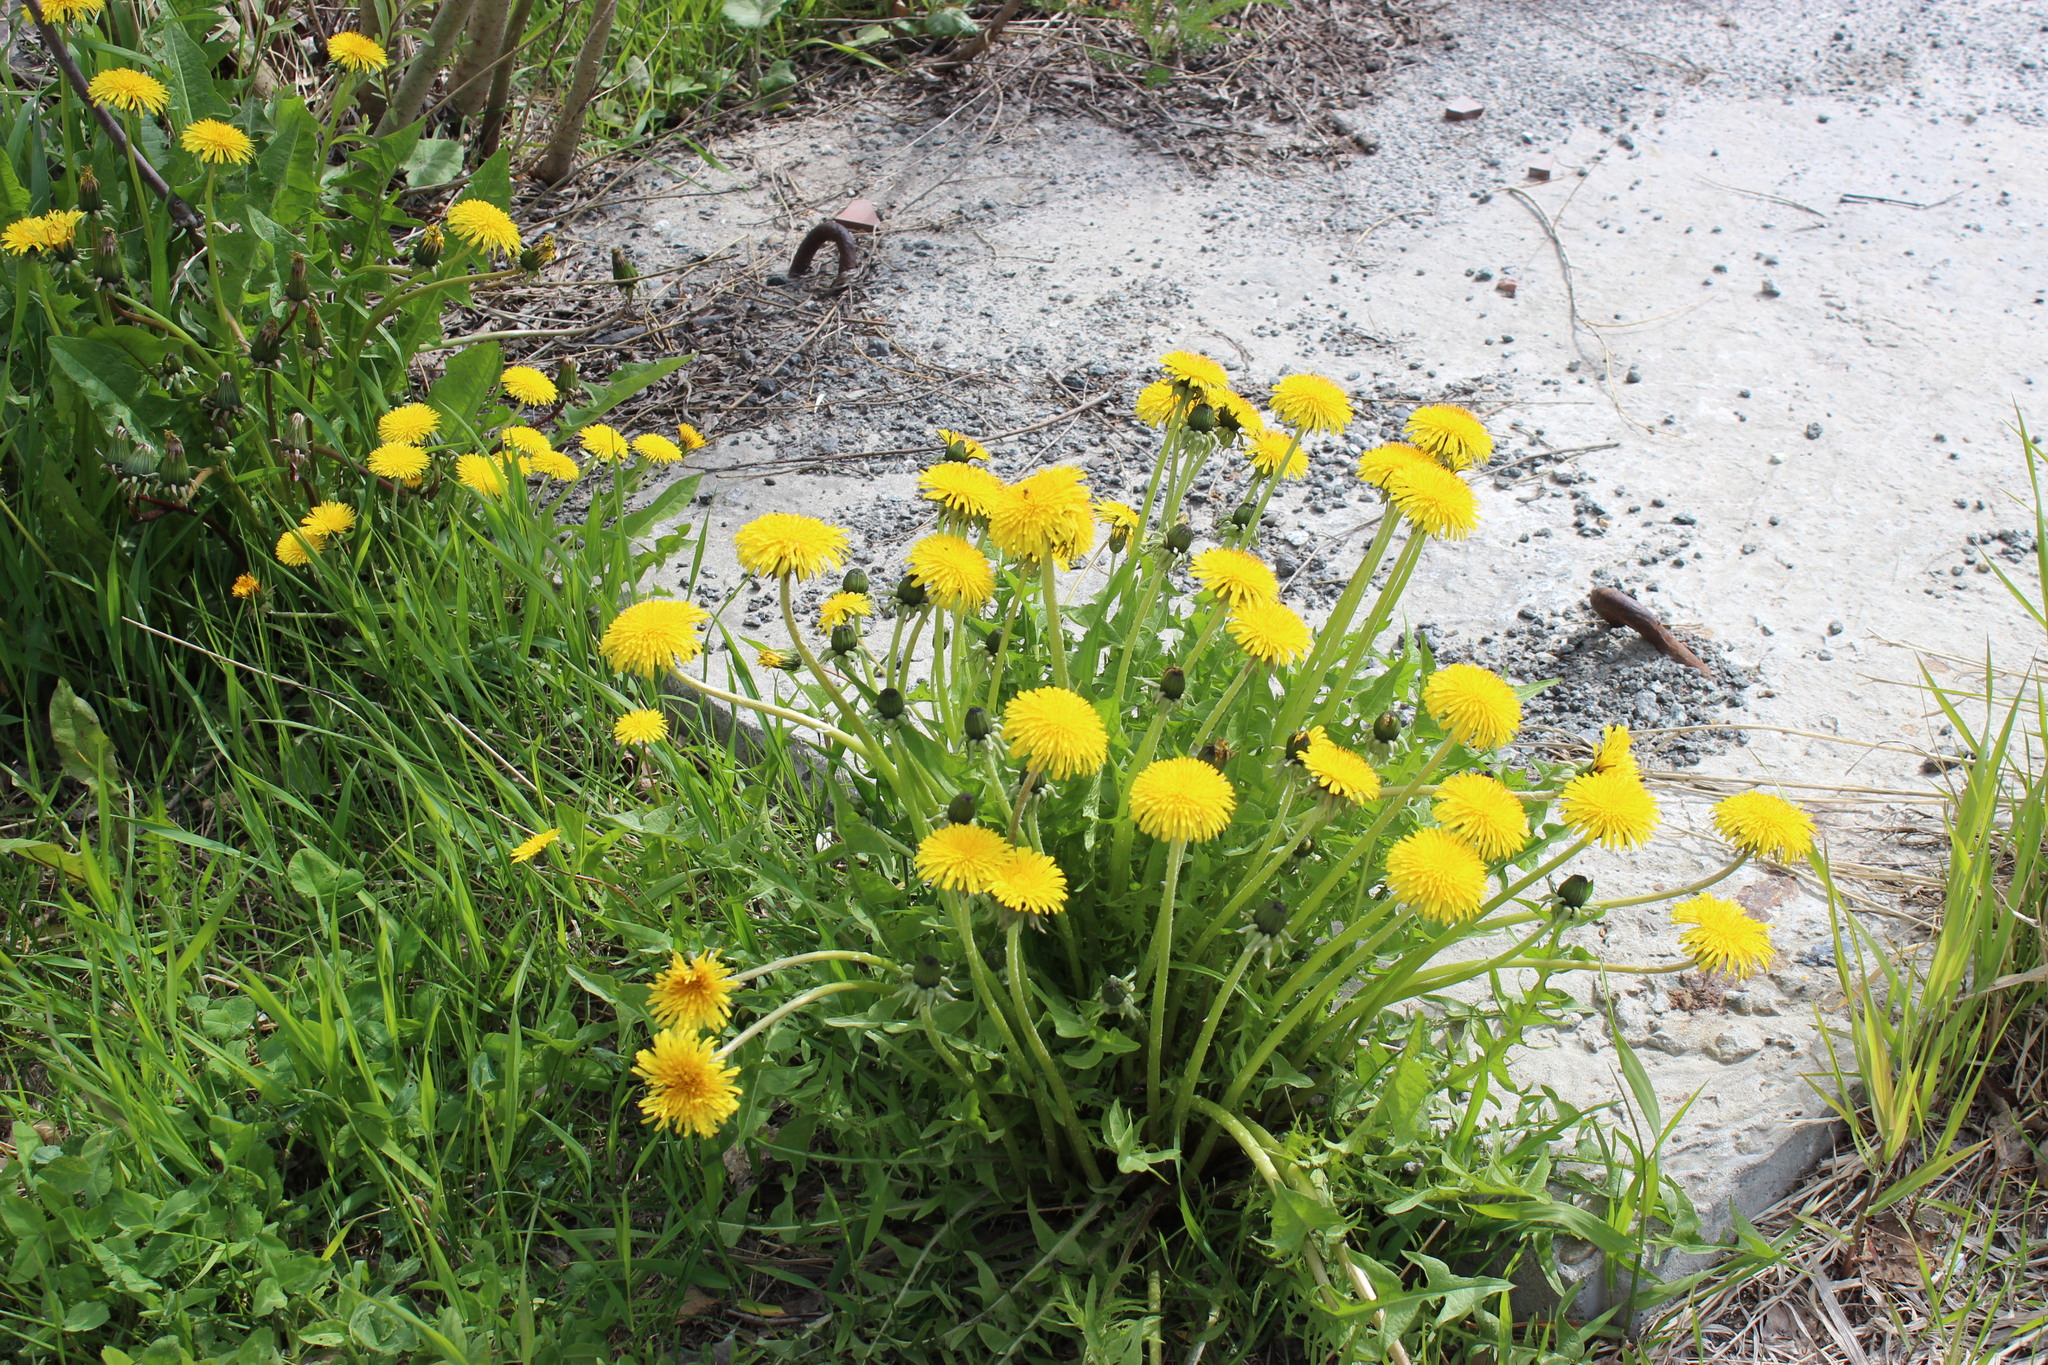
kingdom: Plantae
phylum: Tracheophyta
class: Magnoliopsida
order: Asterales
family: Asteraceae
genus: Taraxacum
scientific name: Taraxacum officinale
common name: Common dandelion
